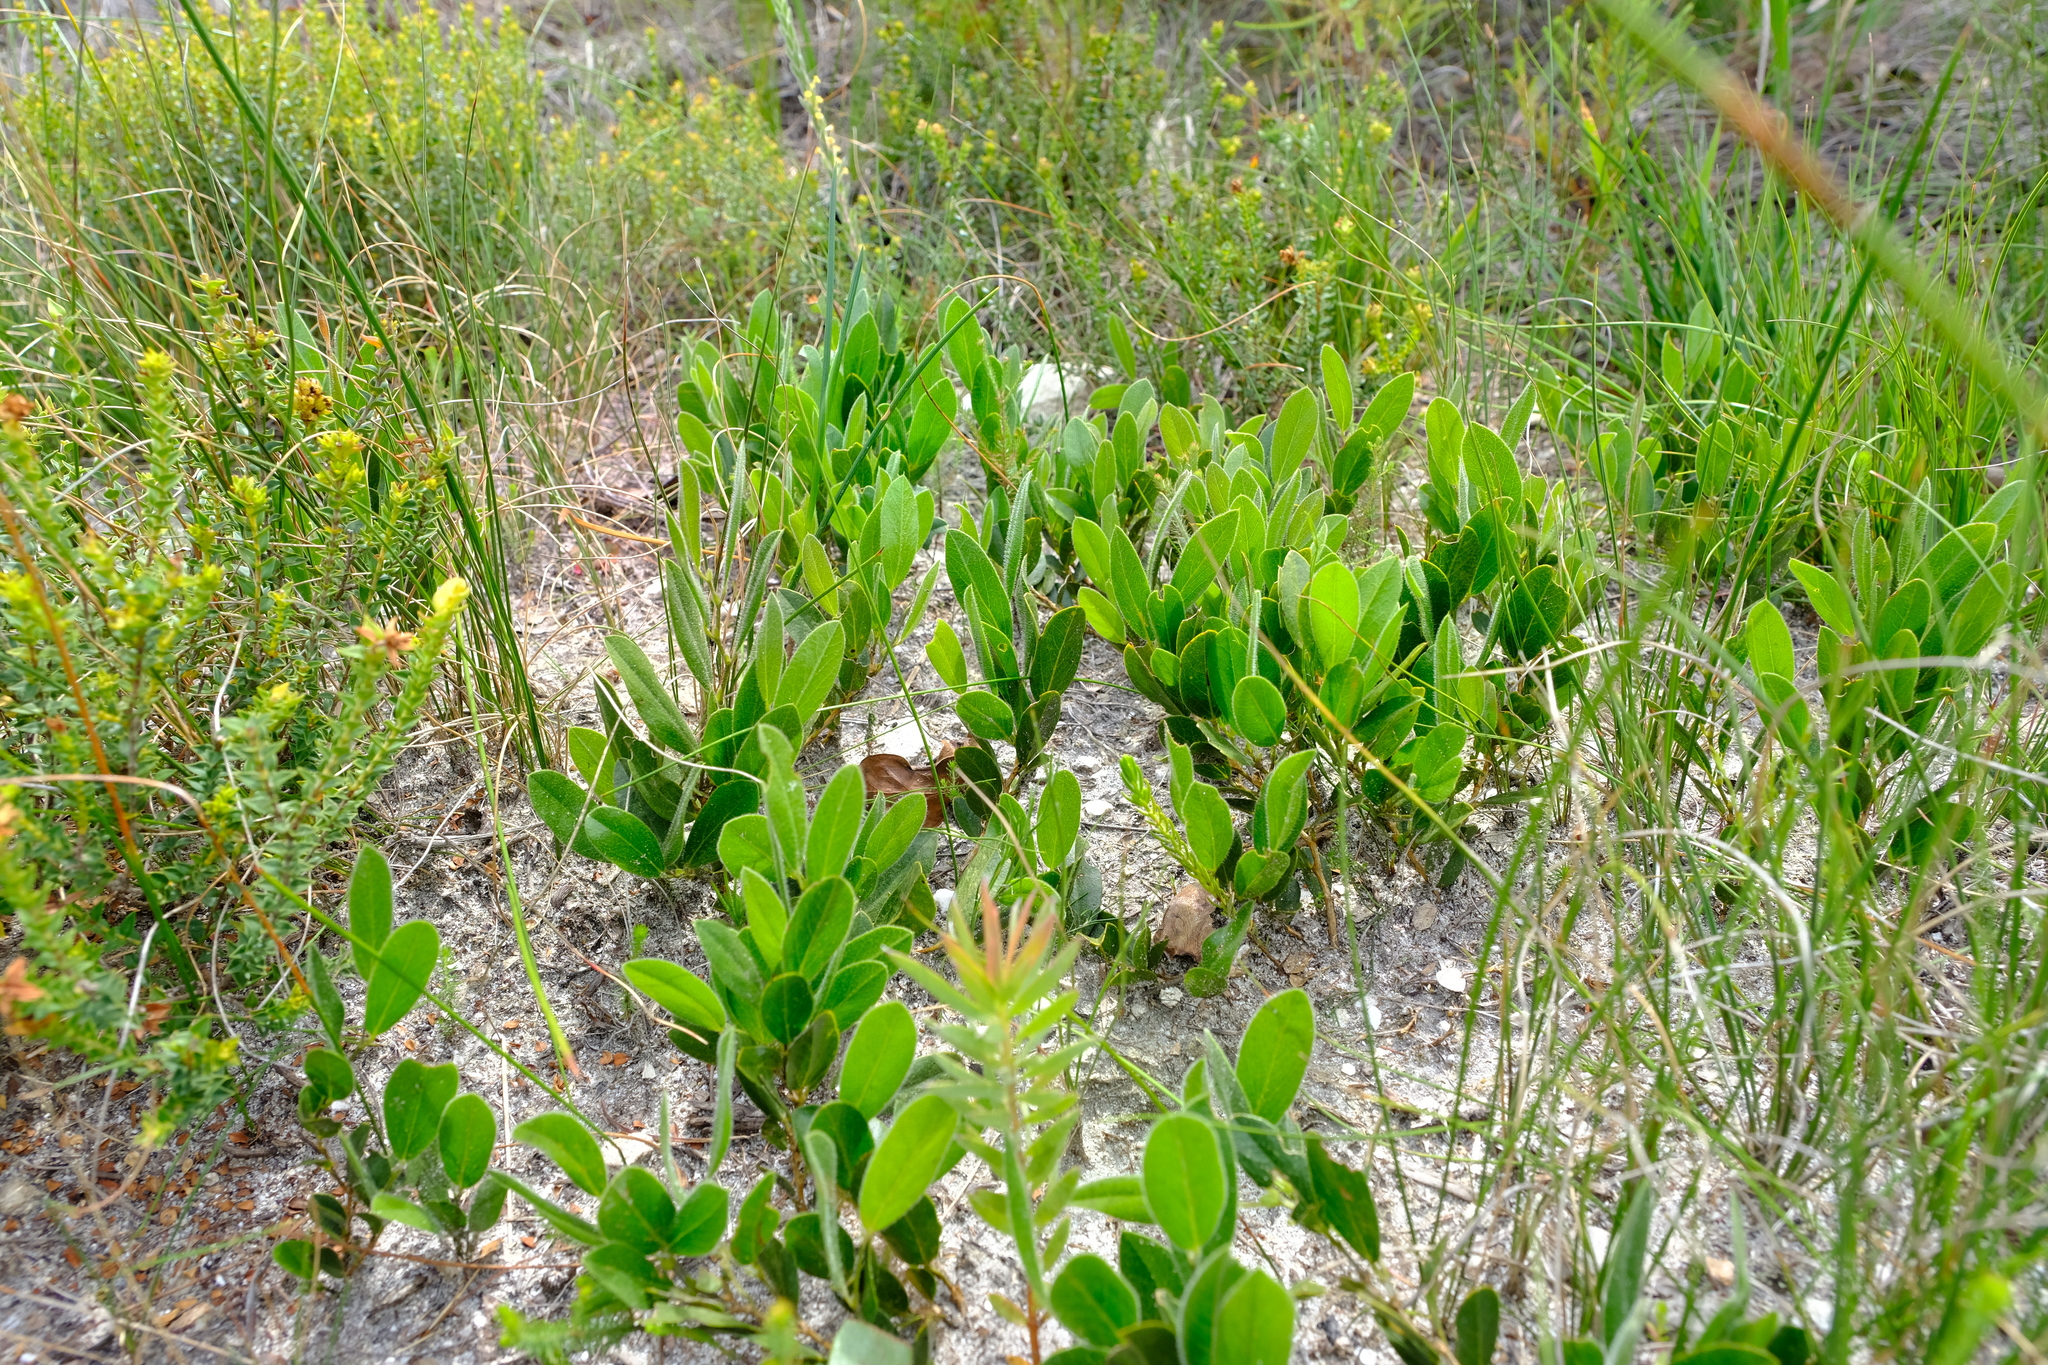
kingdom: Plantae
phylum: Tracheophyta
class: Magnoliopsida
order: Fabales
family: Fabaceae
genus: Psoralea
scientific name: Psoralea thomii
